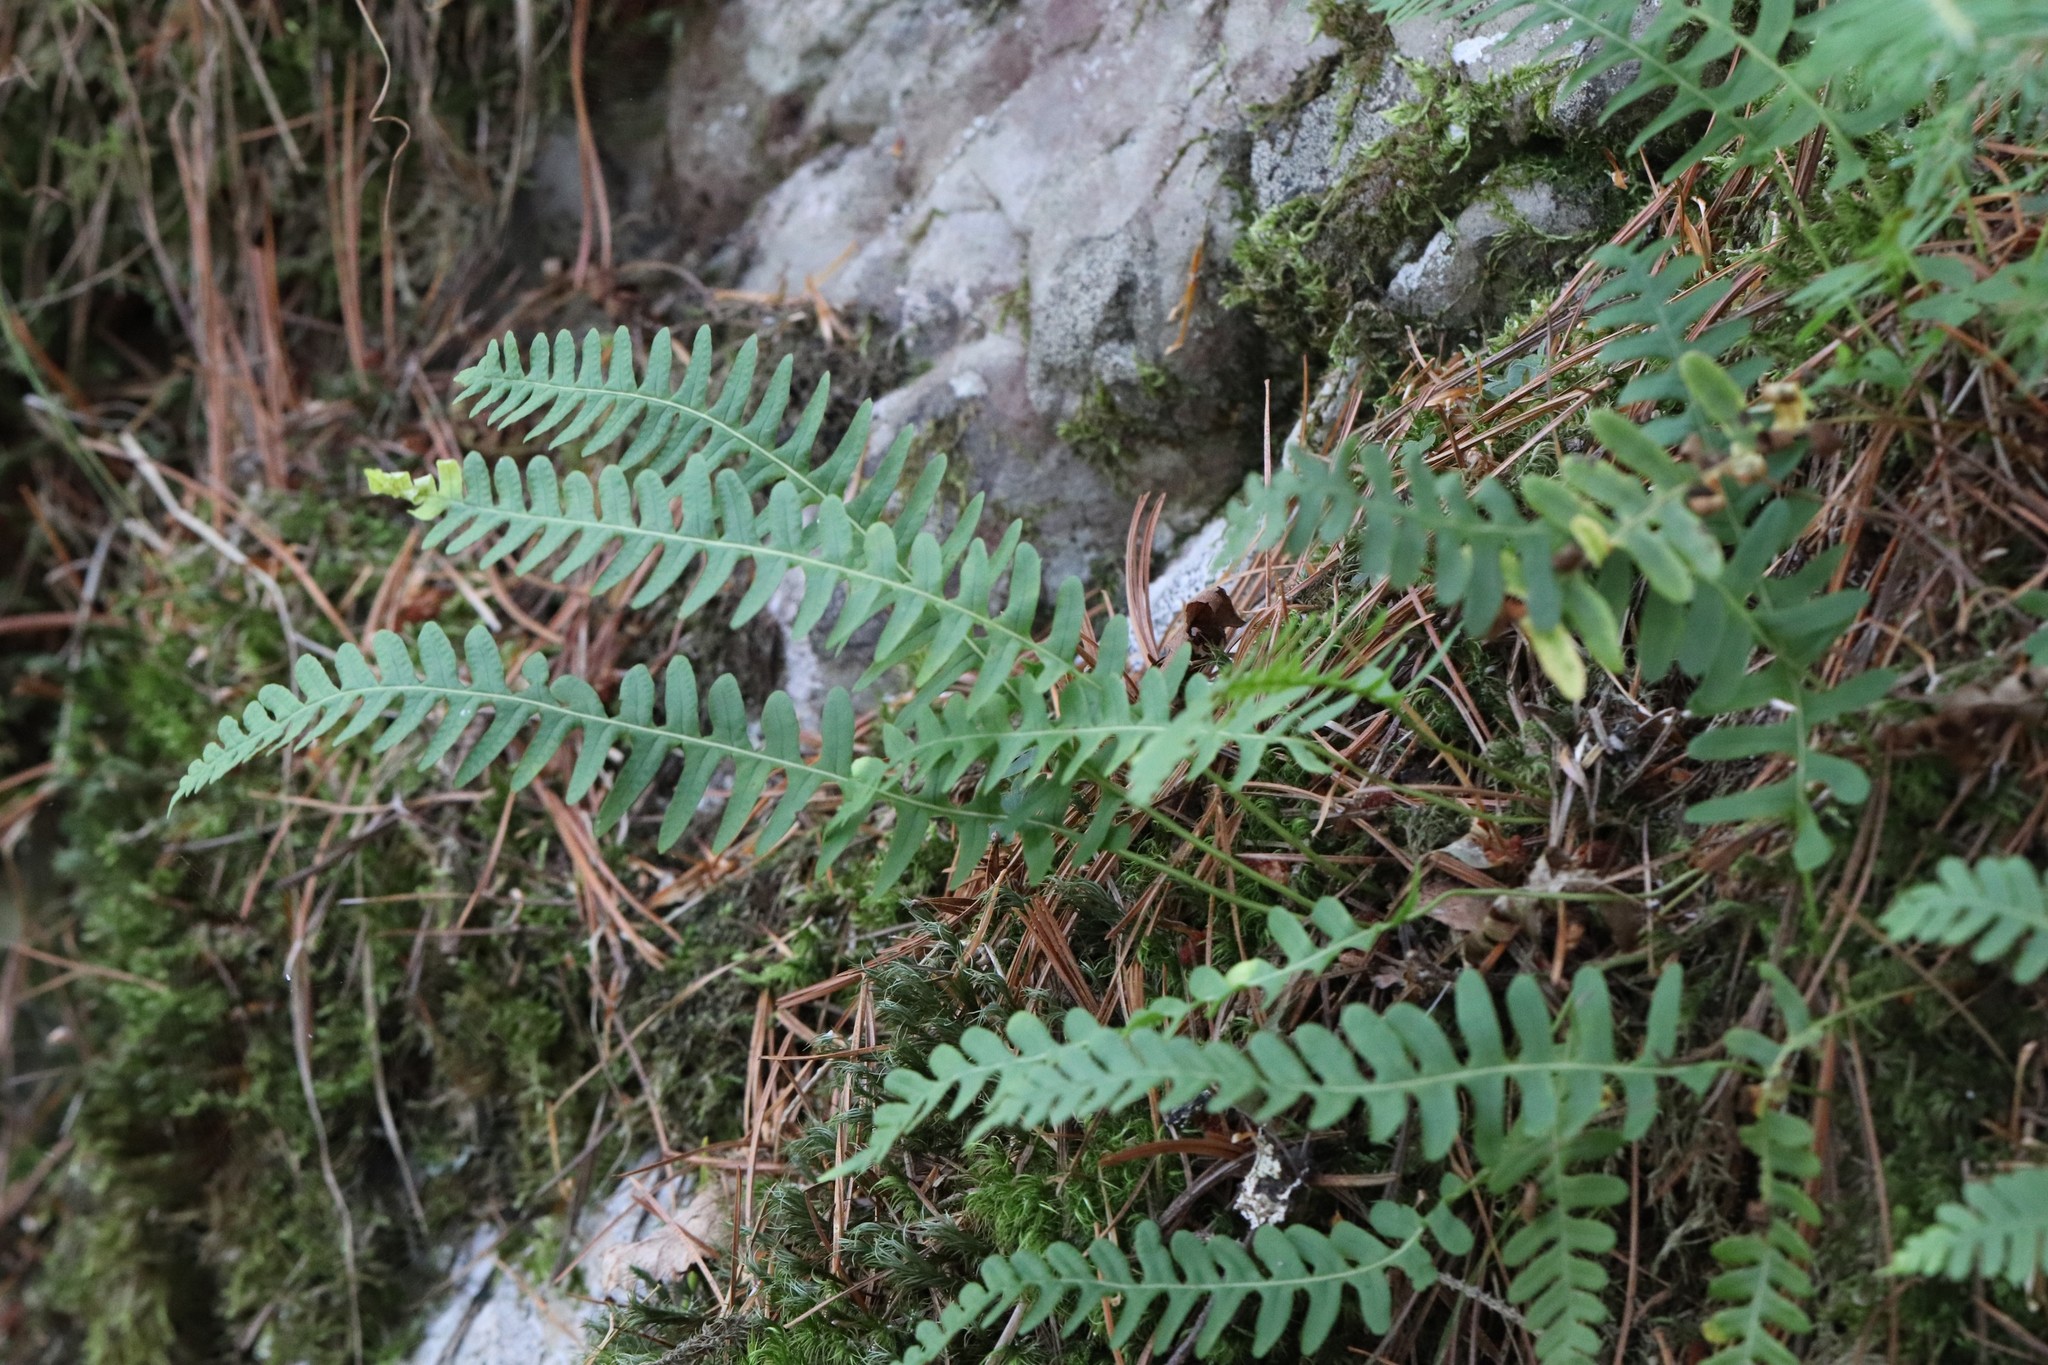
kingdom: Plantae
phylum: Tracheophyta
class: Polypodiopsida
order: Polypodiales
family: Polypodiaceae
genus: Polypodium
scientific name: Polypodium sibiricum
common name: Siberian polypody
